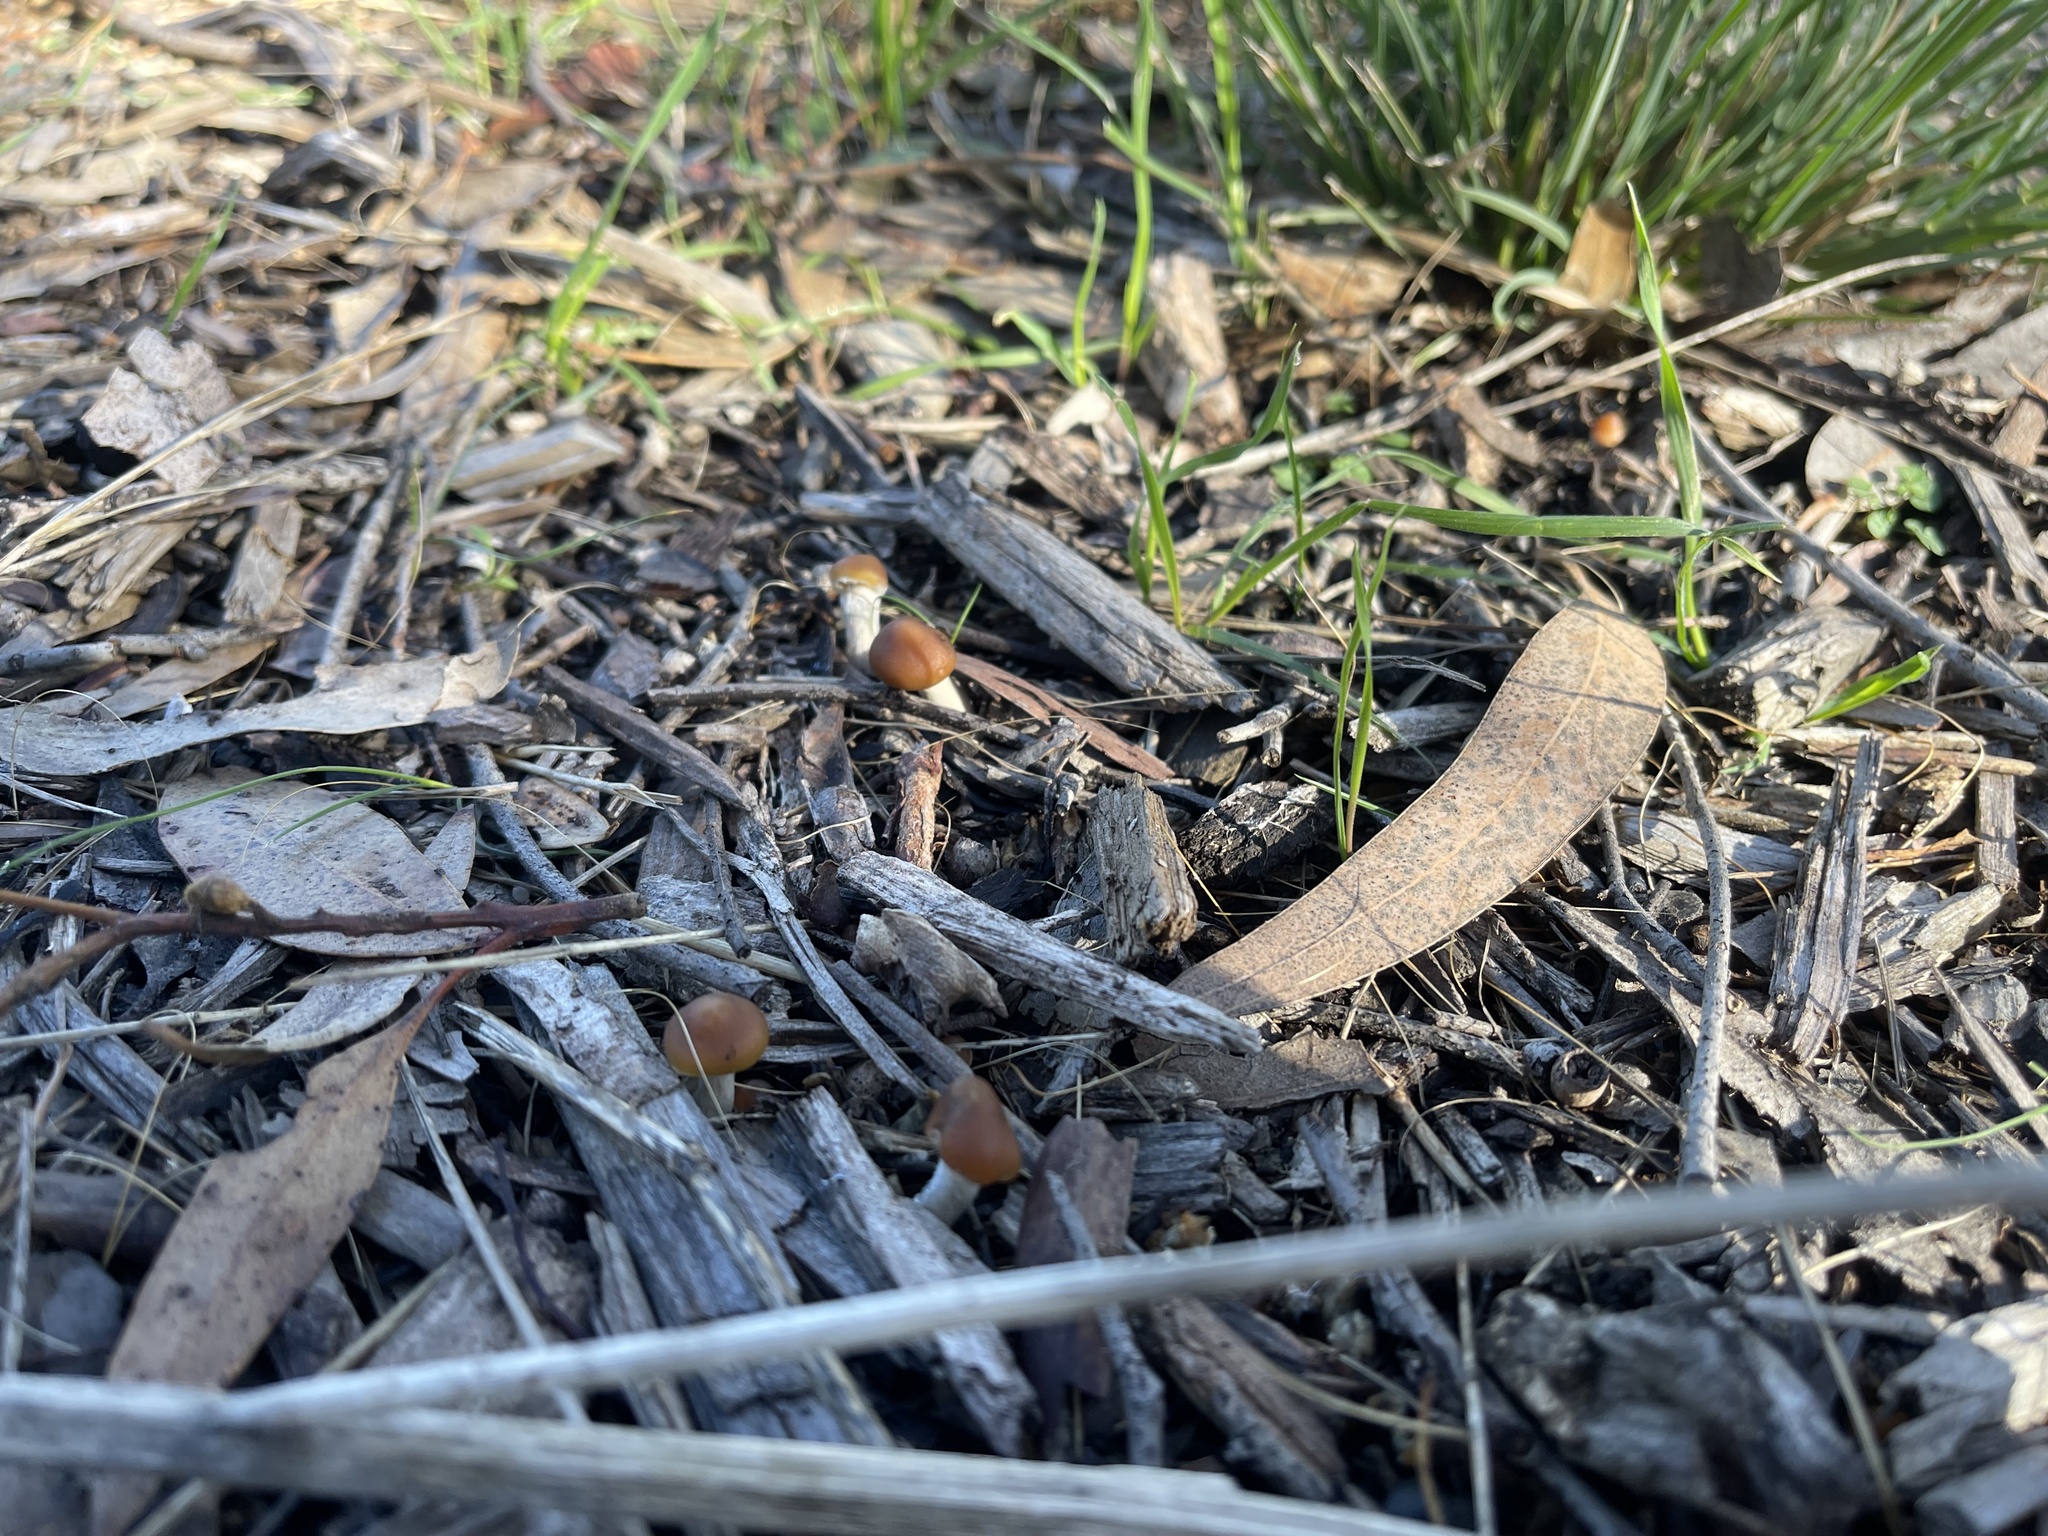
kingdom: Fungi
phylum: Basidiomycota
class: Agaricomycetes
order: Agaricales
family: Hymenogastraceae
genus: Psilocybe
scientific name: Psilocybe subaeruginosa
